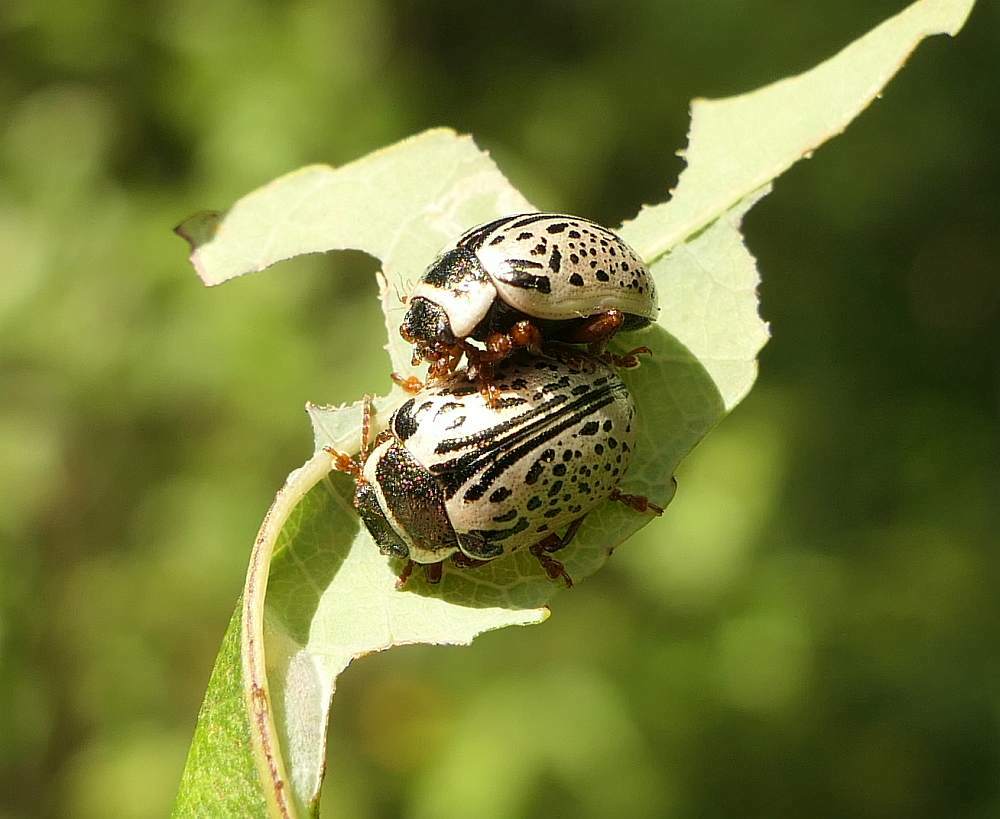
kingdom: Animalia
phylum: Arthropoda
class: Insecta
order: Coleoptera
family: Chrysomelidae
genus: Calligrapha
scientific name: Calligrapha multipunctata
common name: Common willow calligrapher beetle
